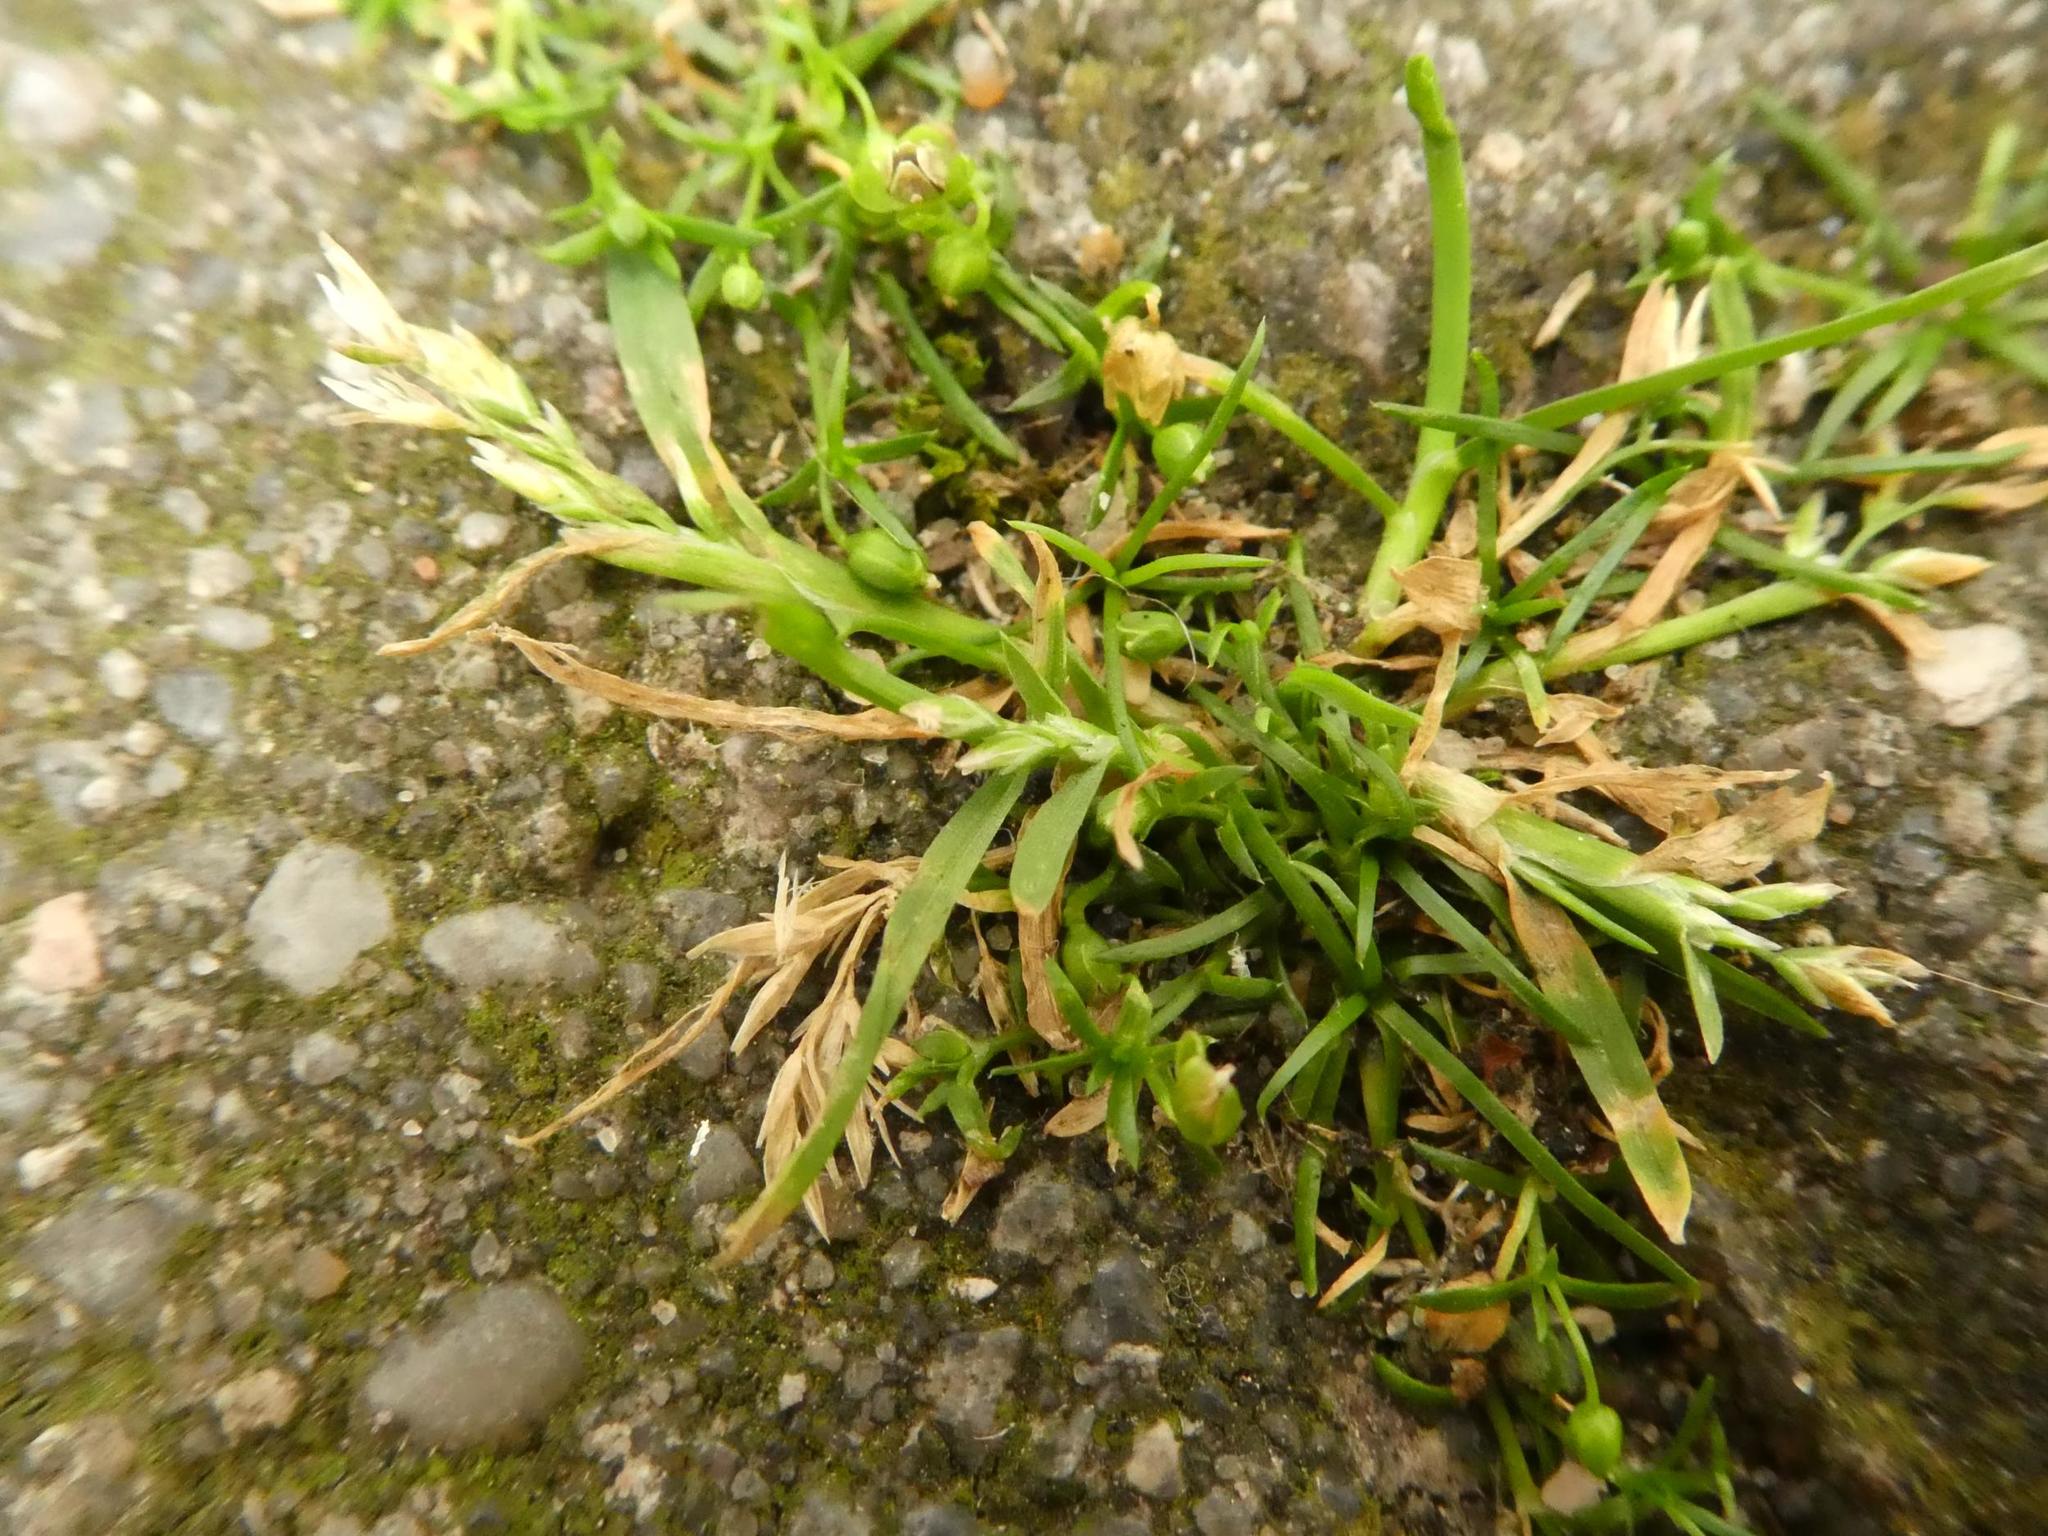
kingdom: Plantae
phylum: Tracheophyta
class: Liliopsida
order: Poales
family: Poaceae
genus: Poa
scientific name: Poa annua
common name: Annual bluegrass
